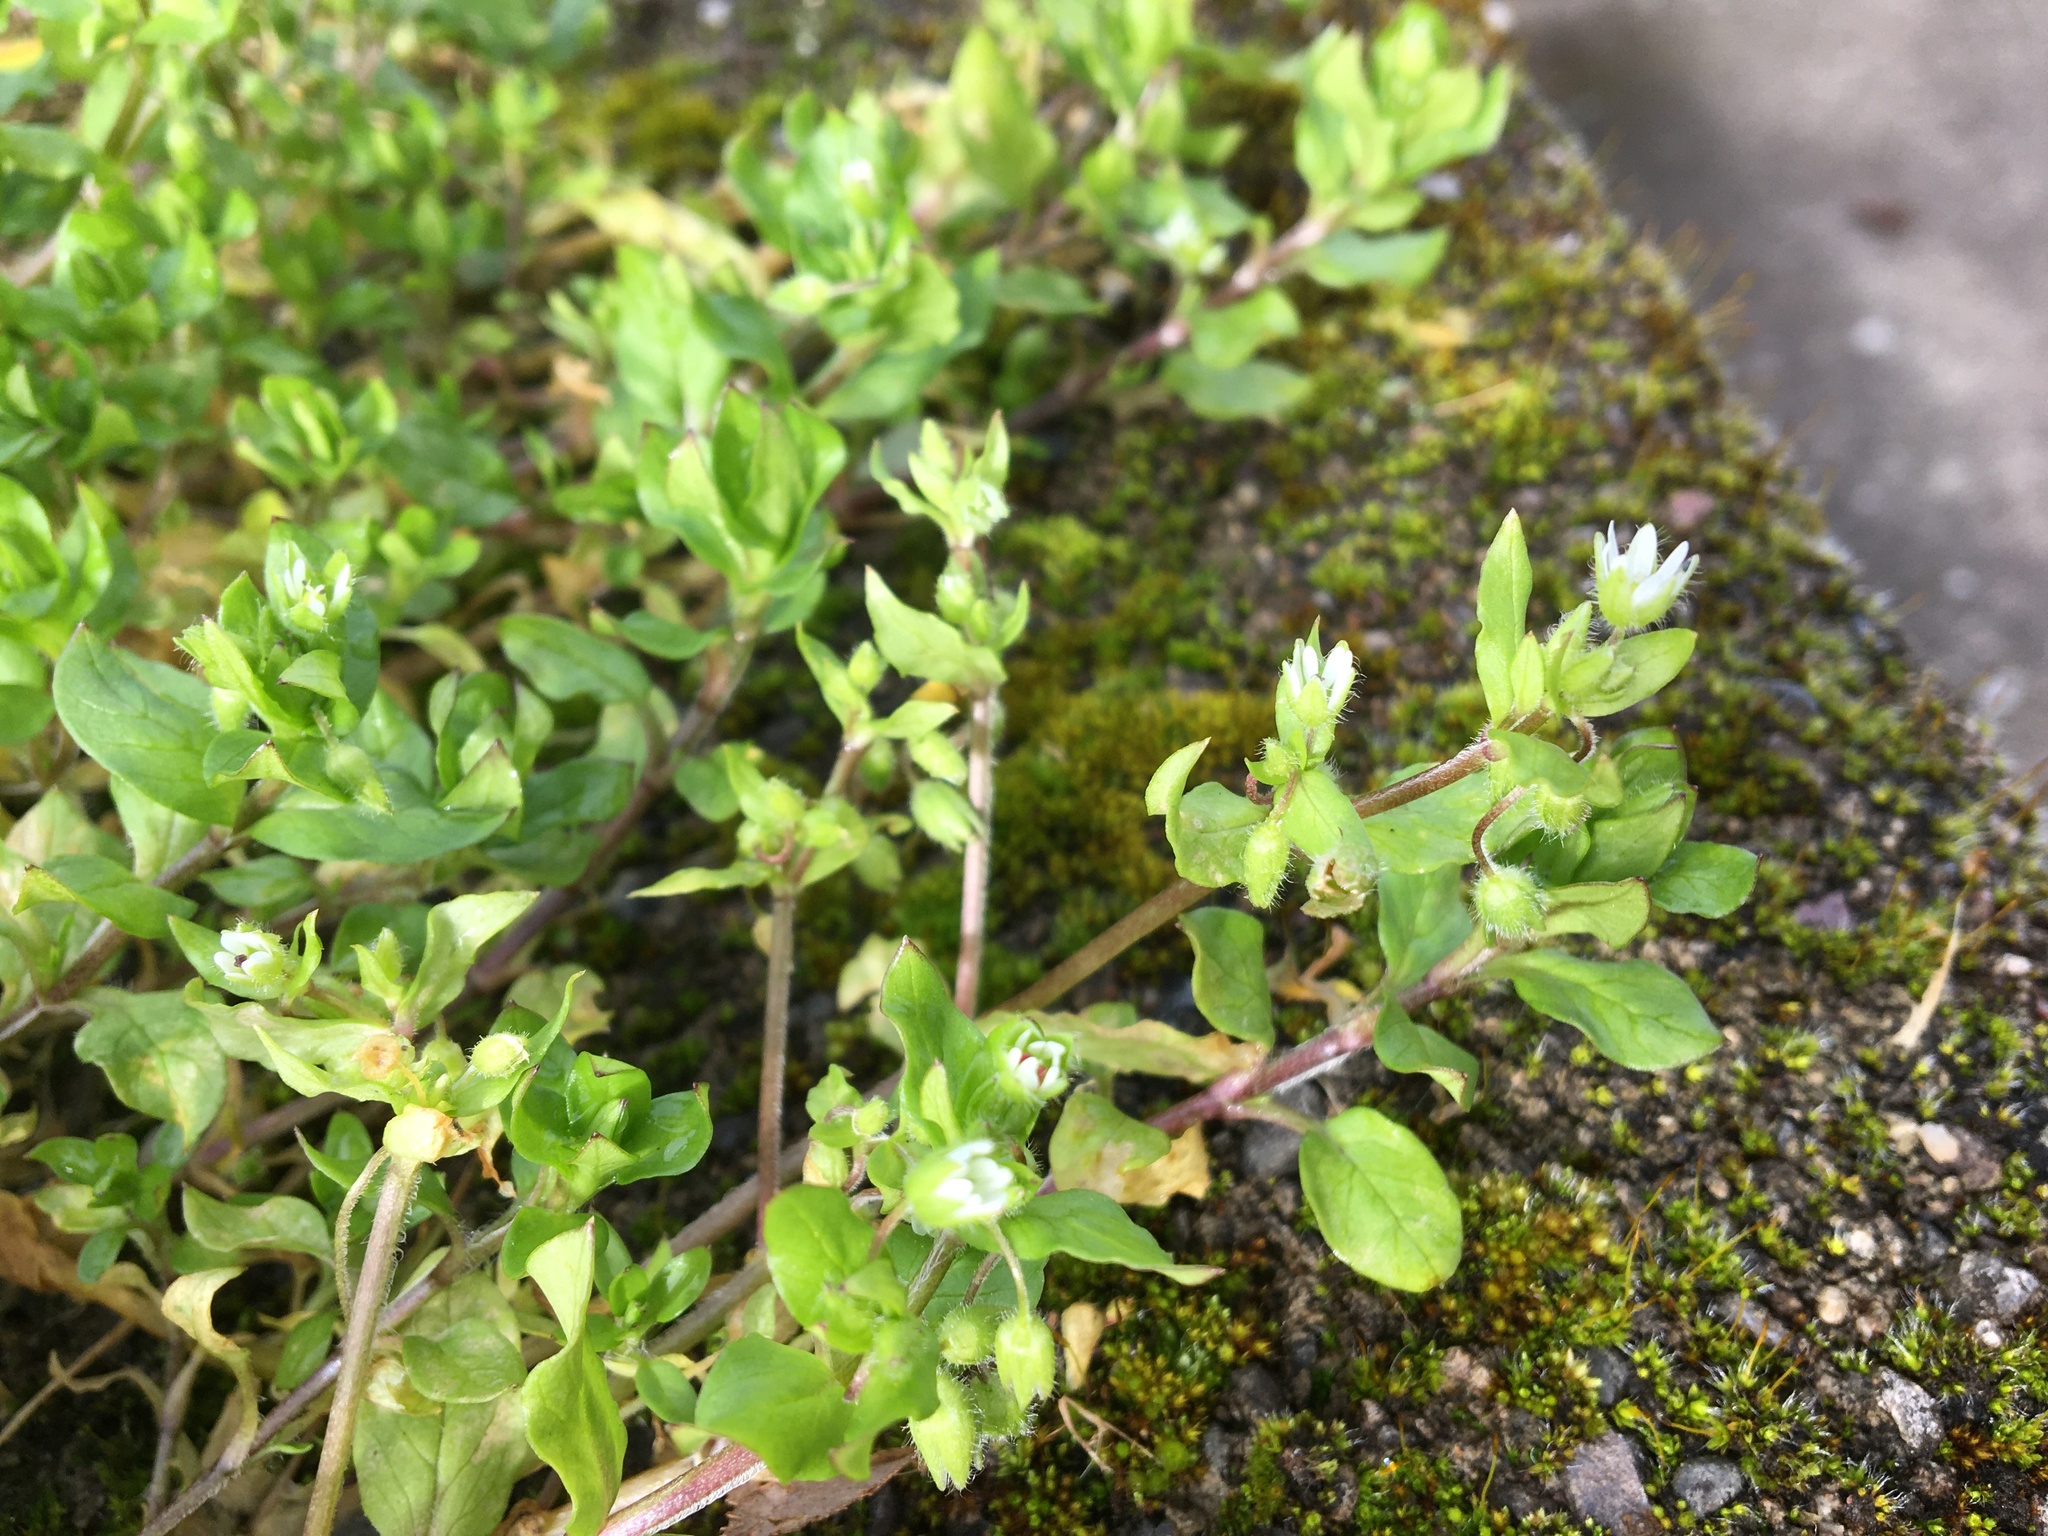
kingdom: Plantae
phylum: Tracheophyta
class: Magnoliopsida
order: Caryophyllales
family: Caryophyllaceae
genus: Stellaria
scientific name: Stellaria media
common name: Common chickweed
